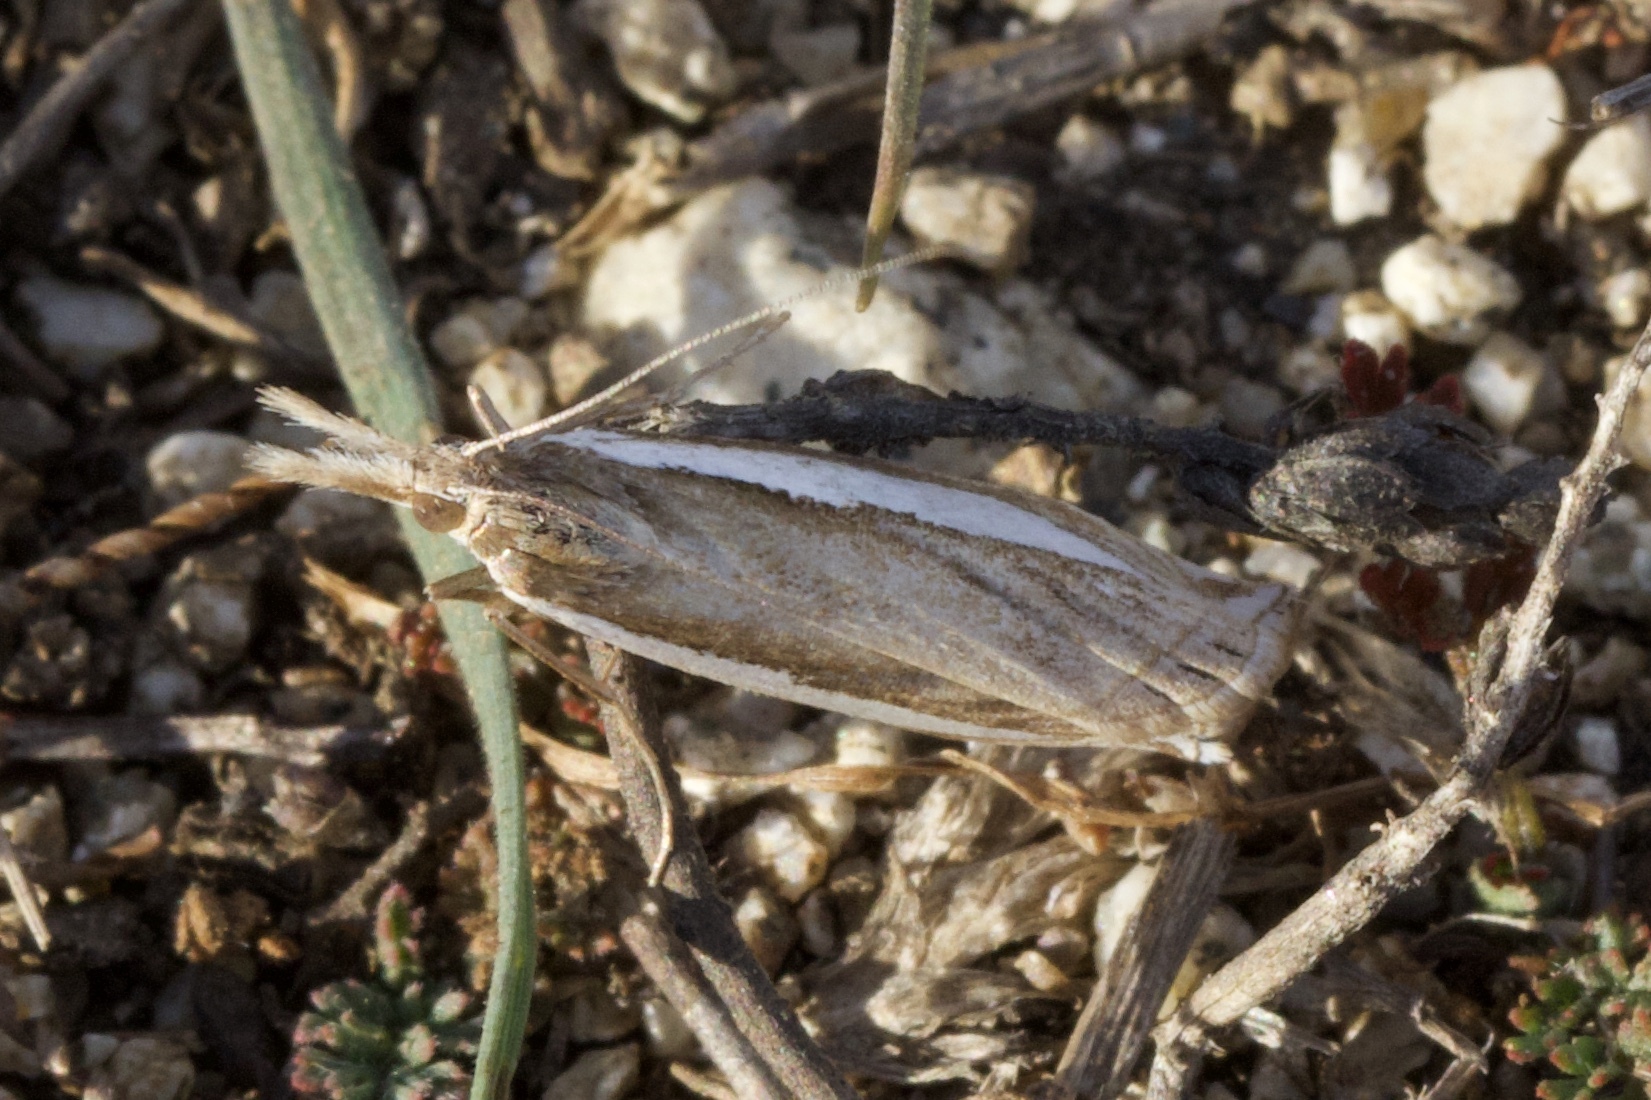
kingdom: Animalia
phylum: Arthropoda
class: Insecta
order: Lepidoptera
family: Crambidae
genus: Crambus
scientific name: Crambus
